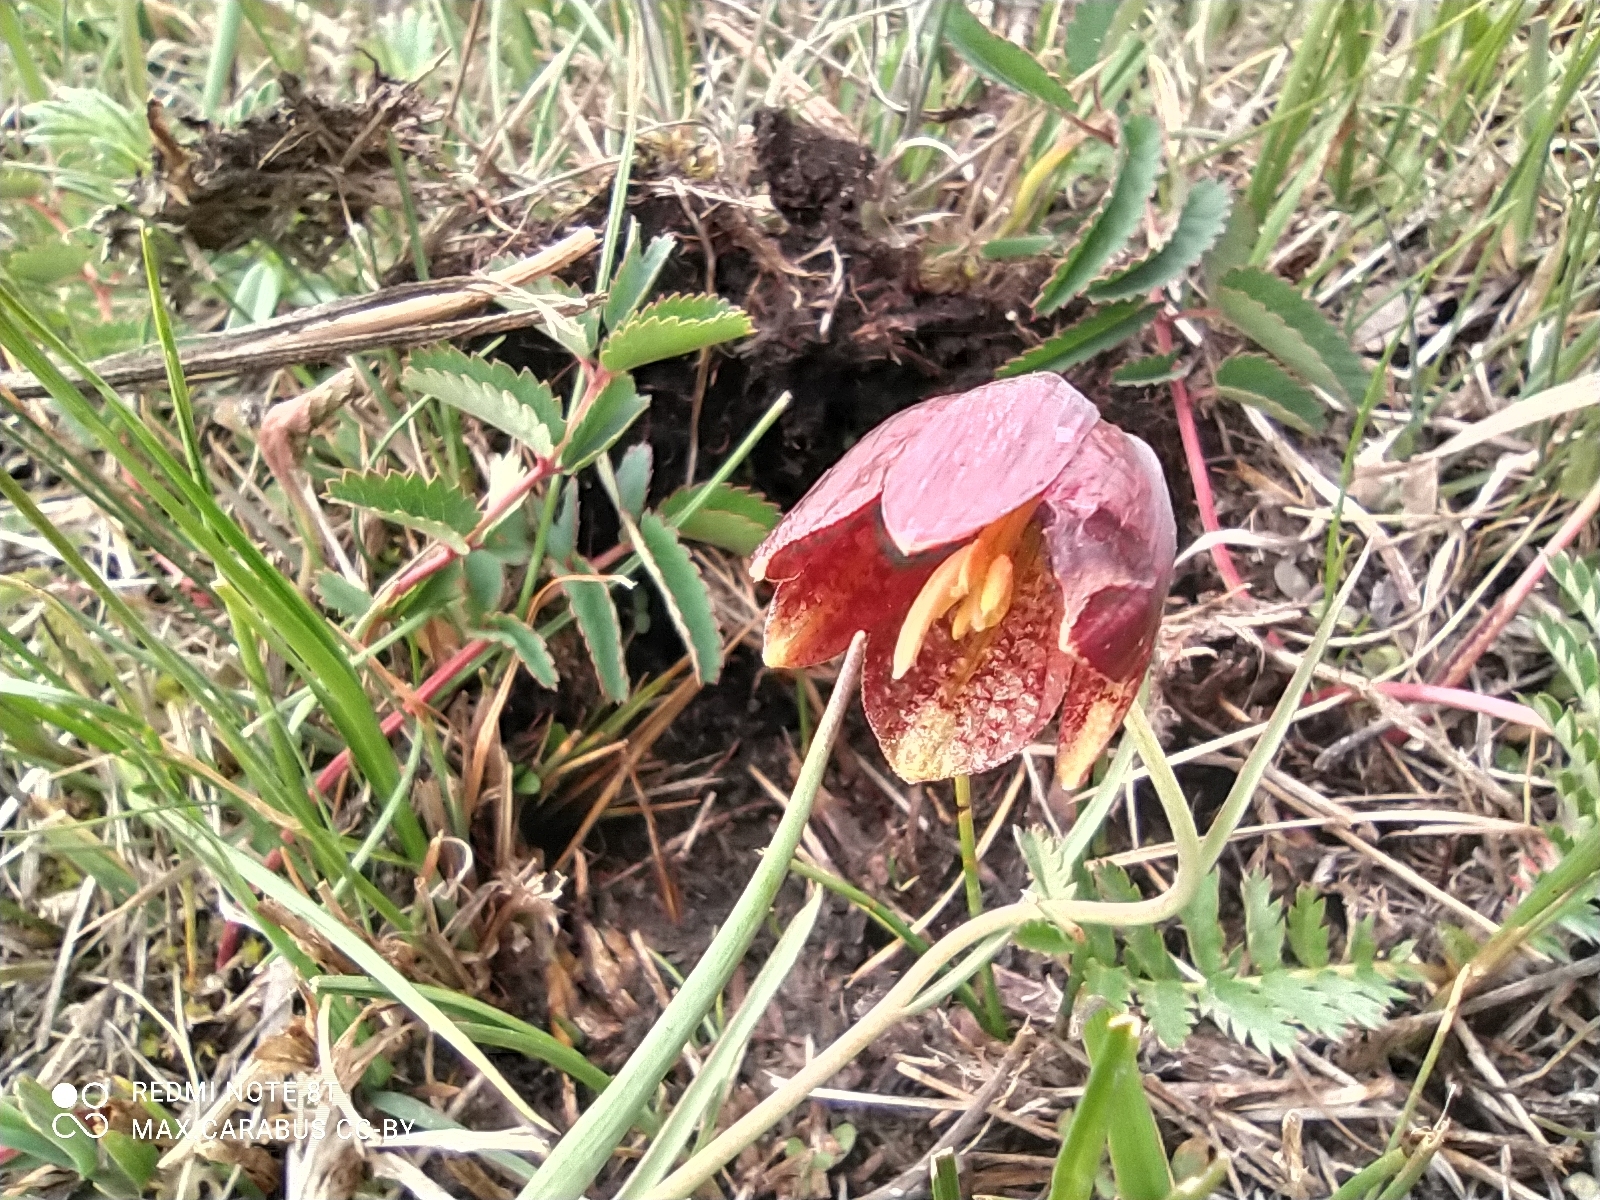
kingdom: Plantae
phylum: Tracheophyta
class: Liliopsida
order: Liliales
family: Liliaceae
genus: Fritillaria
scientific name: Fritillaria meleagroides
